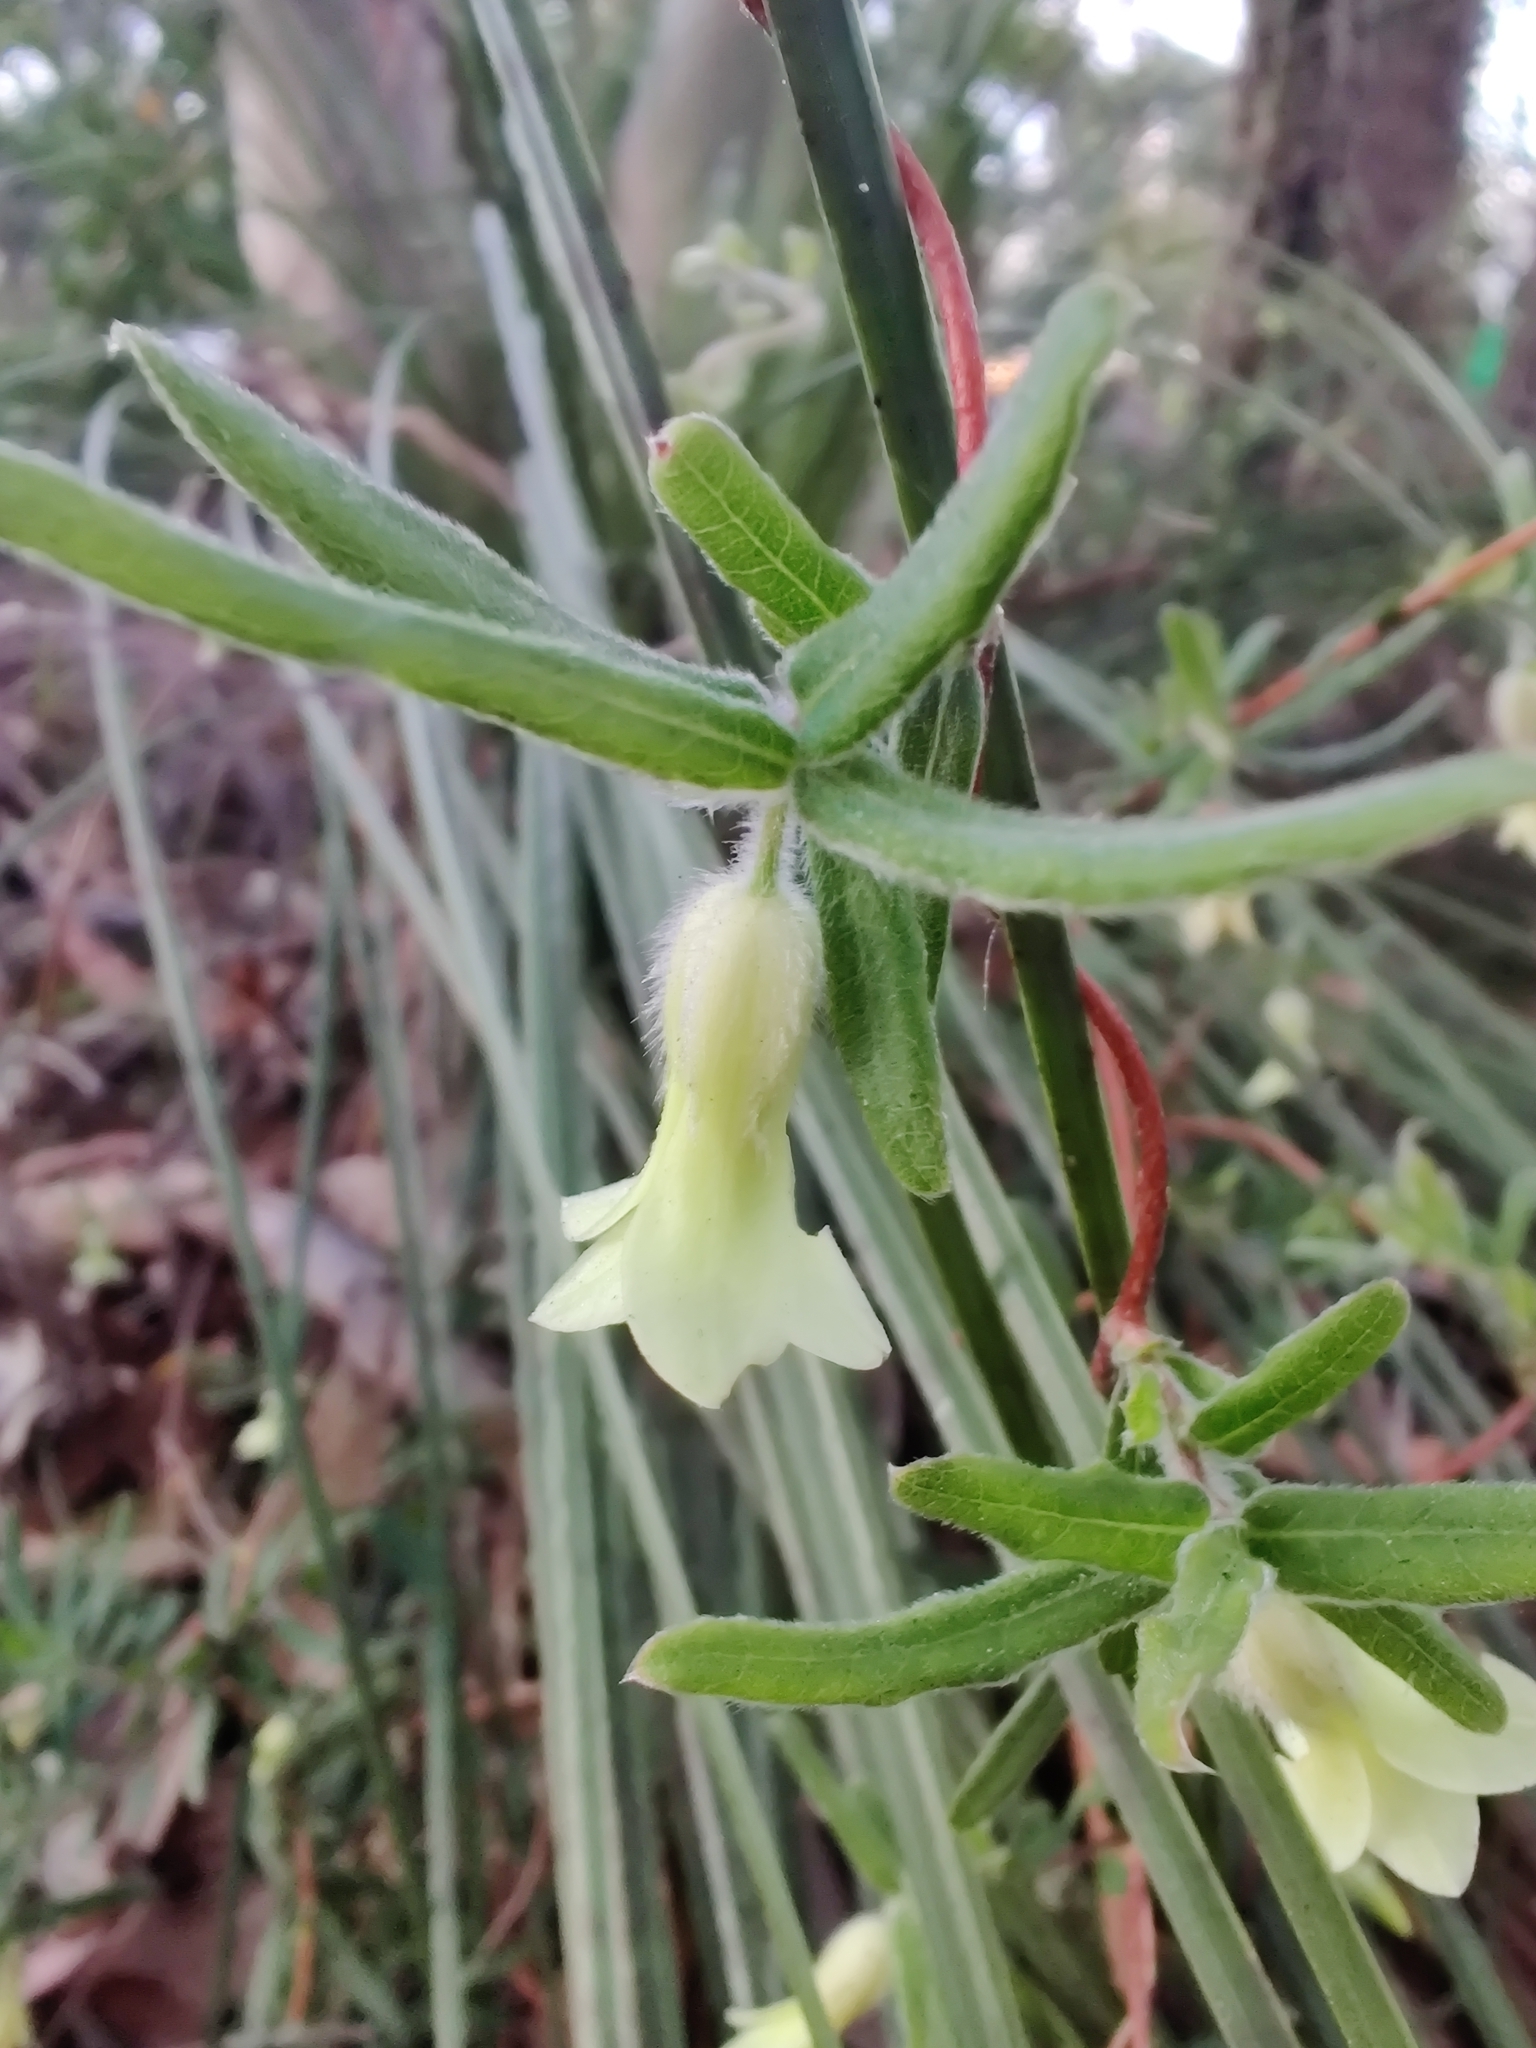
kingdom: Plantae
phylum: Tracheophyta
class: Magnoliopsida
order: Apiales
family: Pittosporaceae
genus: Billardiera
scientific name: Billardiera scandens
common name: Apple-berry
